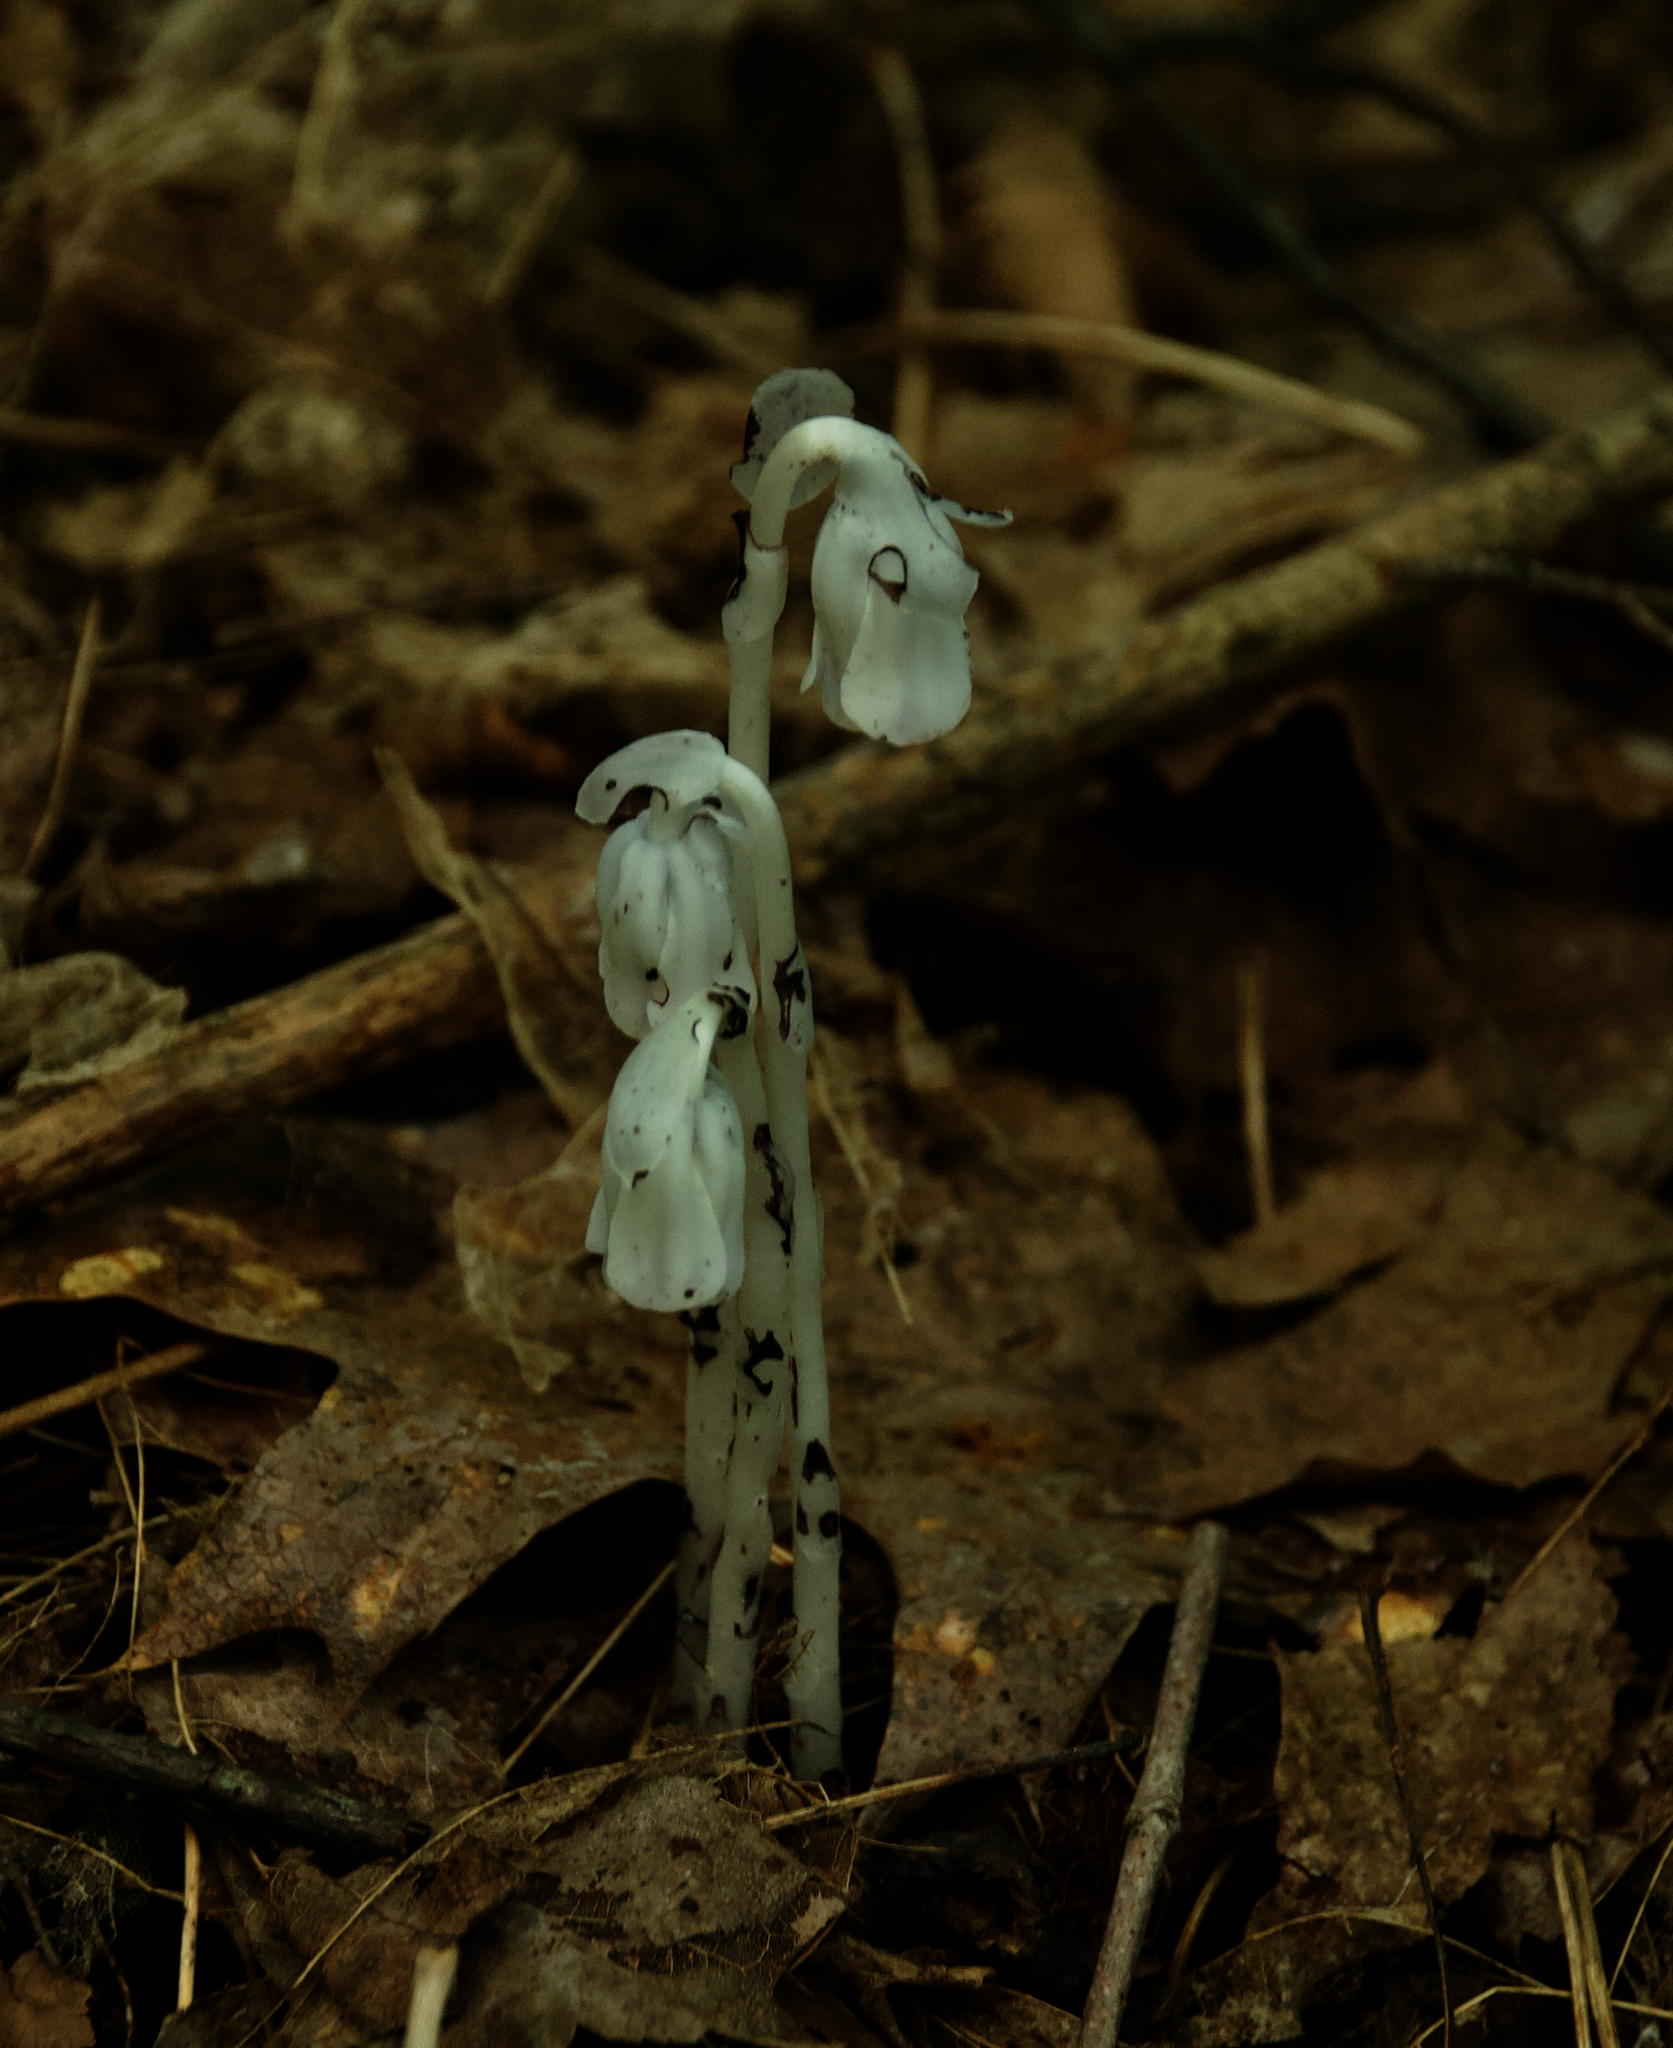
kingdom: Plantae
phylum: Tracheophyta
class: Magnoliopsida
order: Ericales
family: Ericaceae
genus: Monotropa
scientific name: Monotropa uniflora
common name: Convulsion root
